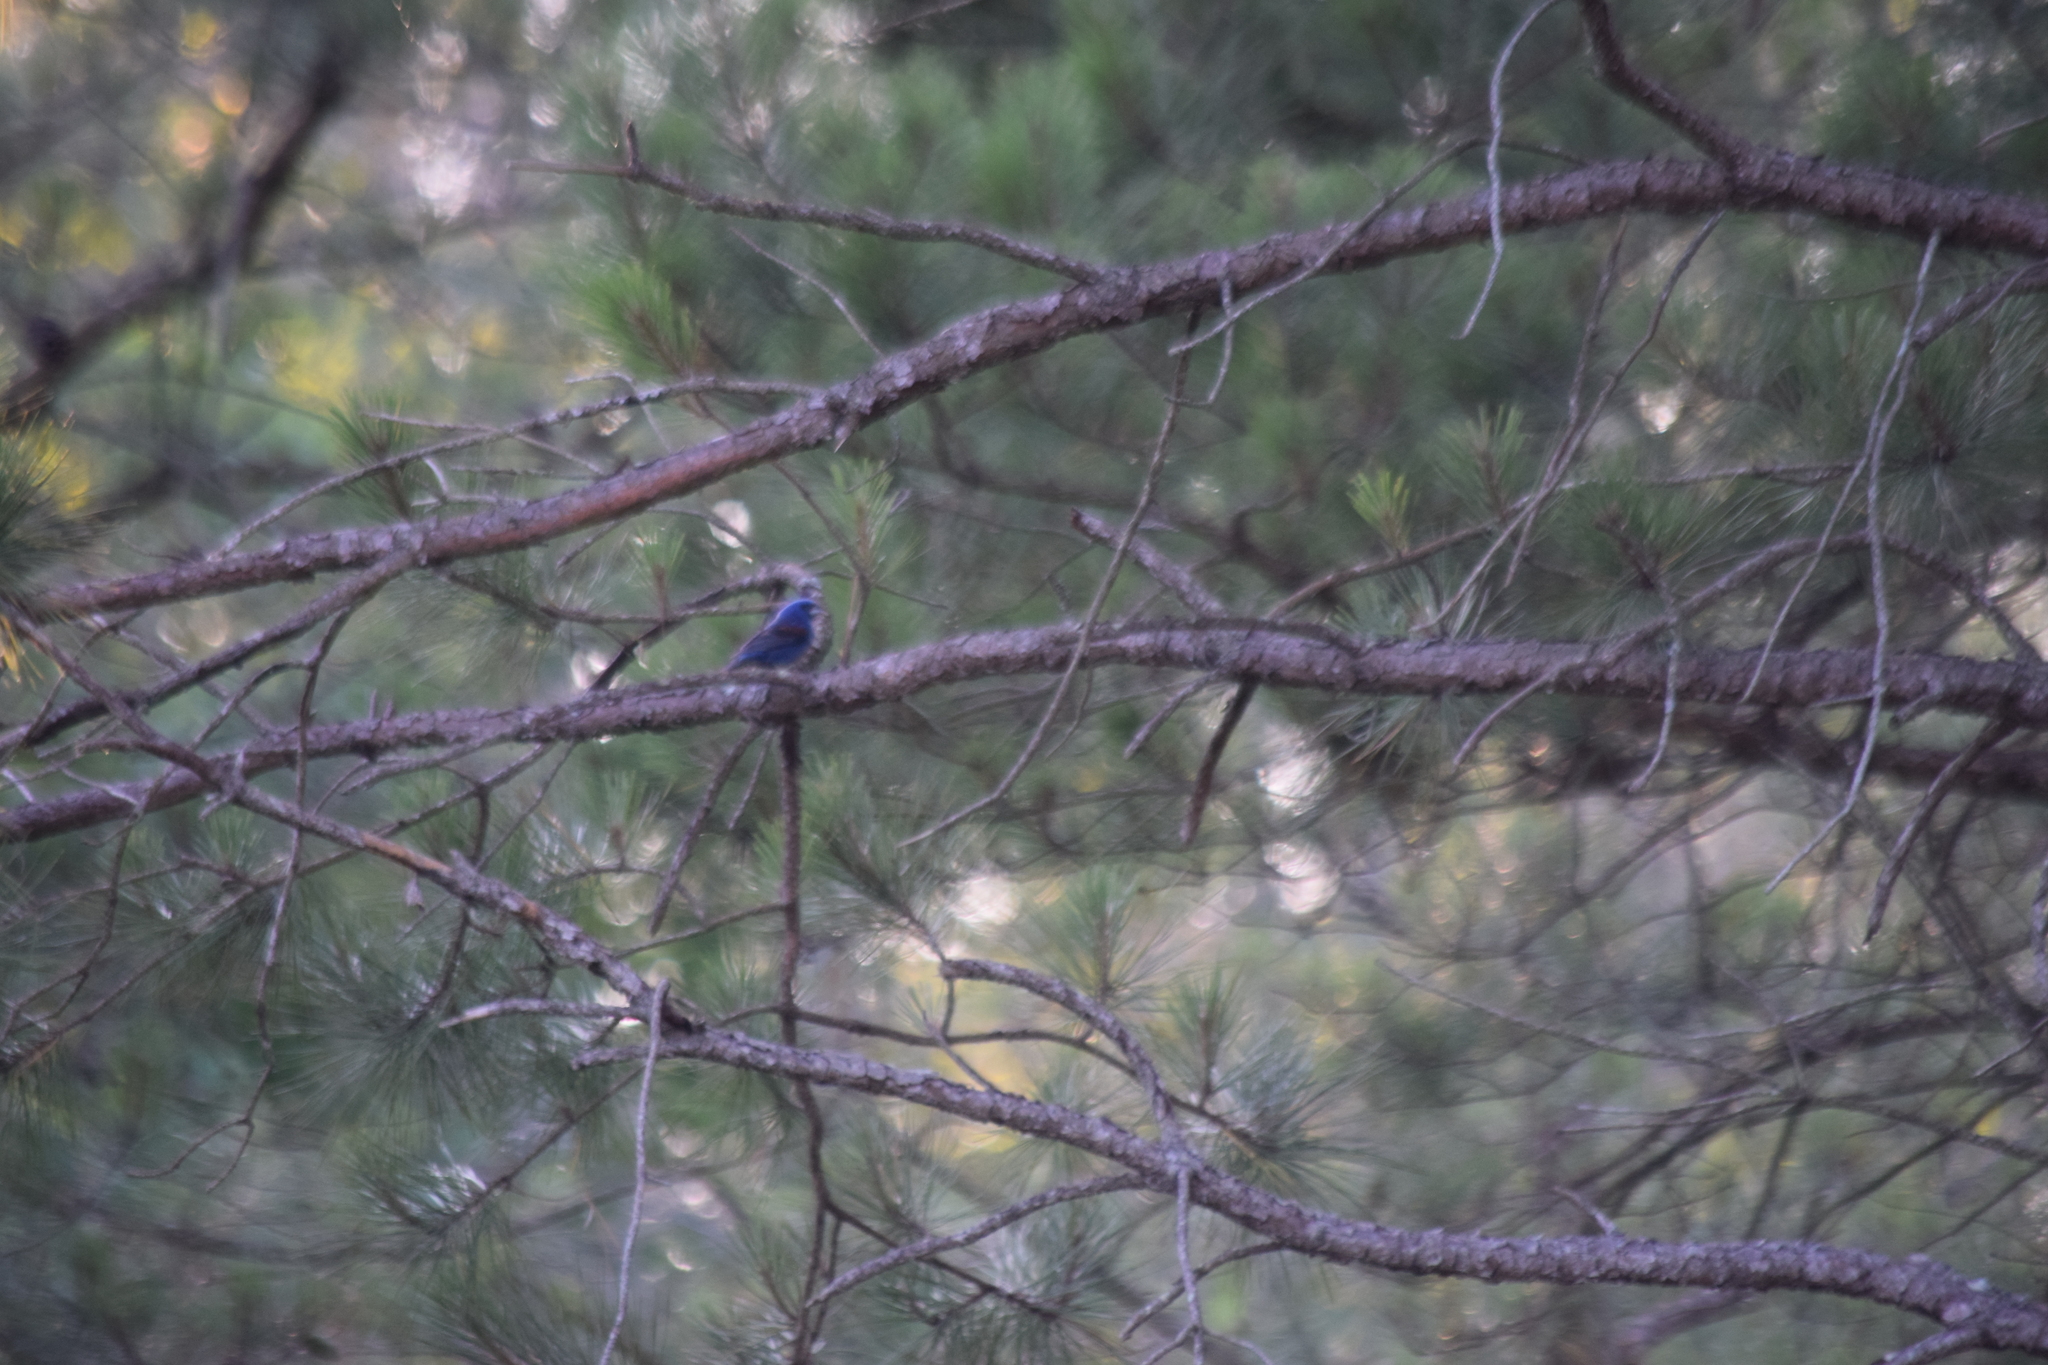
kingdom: Animalia
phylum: Chordata
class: Aves
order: Passeriformes
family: Cardinalidae
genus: Passerina
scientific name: Passerina caerulea
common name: Blue grosbeak
